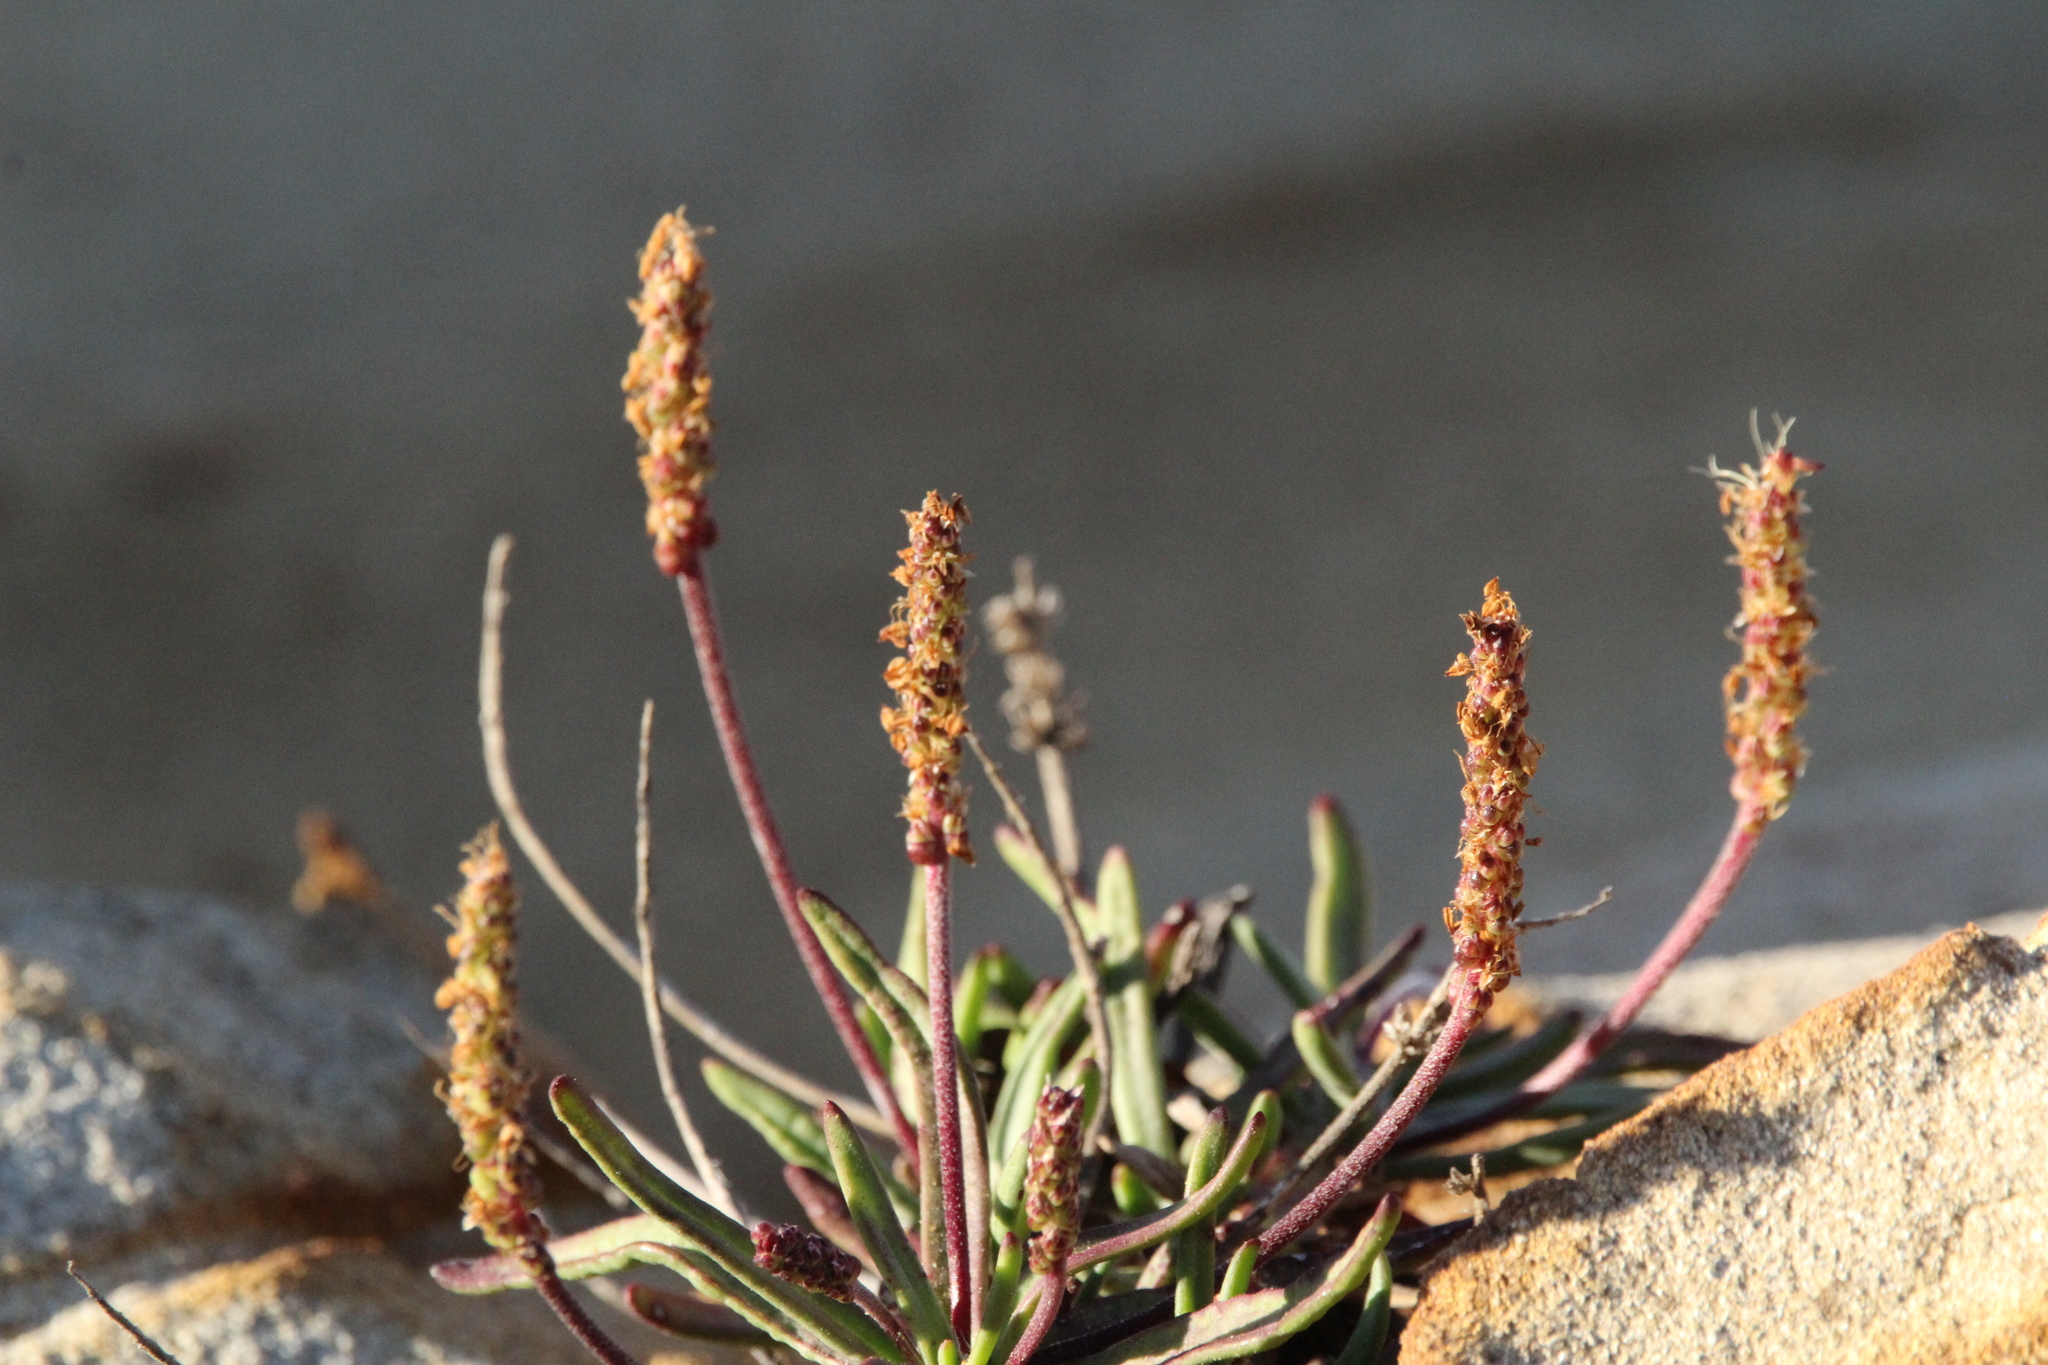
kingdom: Plantae
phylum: Tracheophyta
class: Magnoliopsida
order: Lamiales
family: Plantaginaceae
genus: Plantago
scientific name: Plantago maritima
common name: Sea plantain
